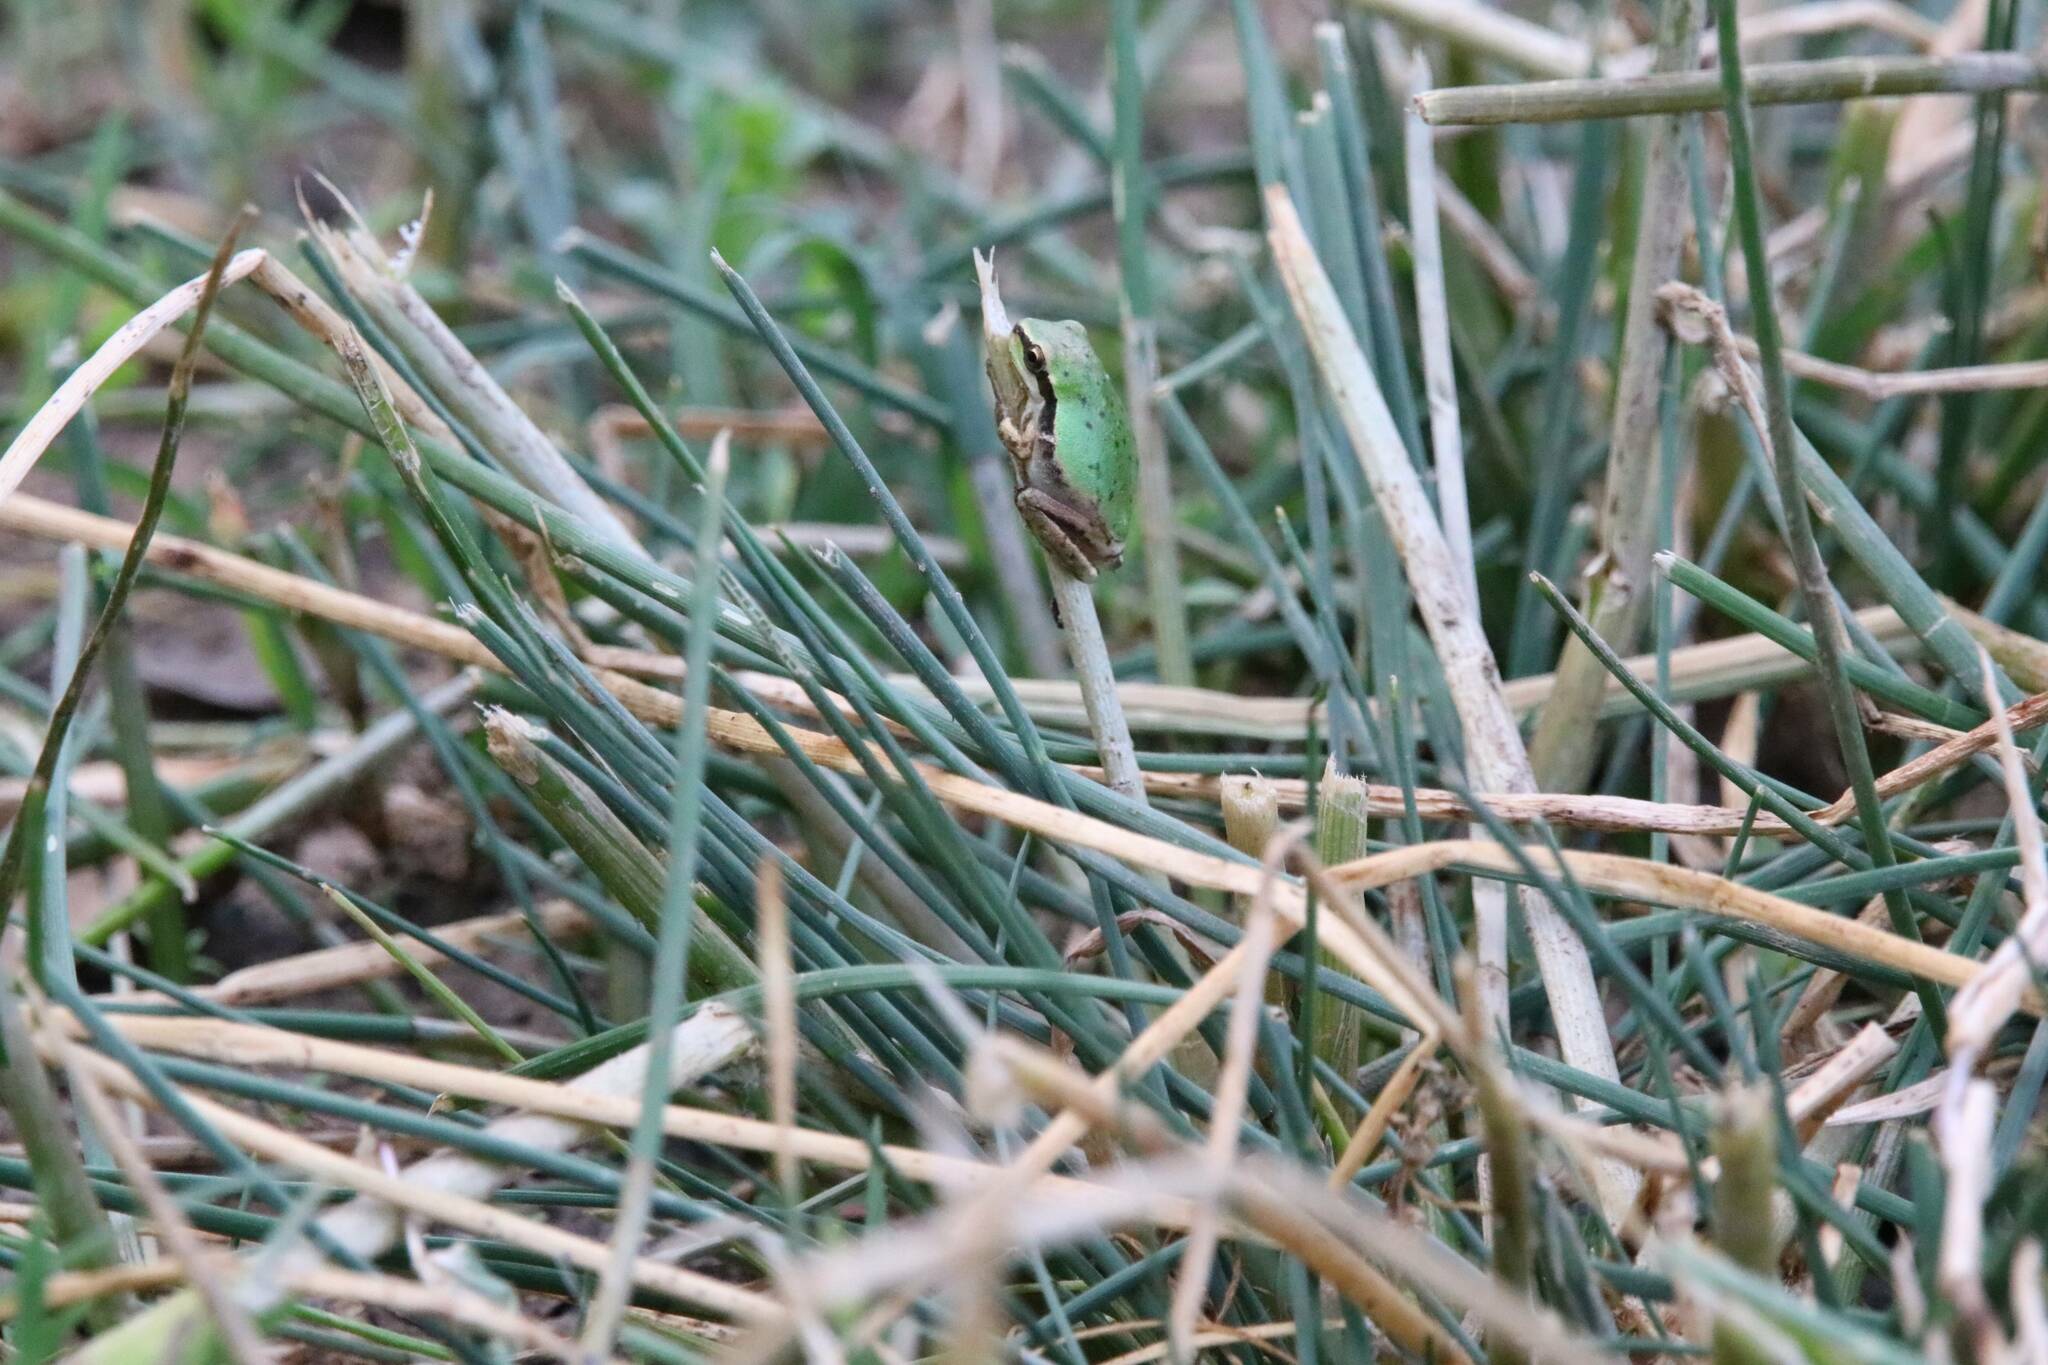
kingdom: Animalia
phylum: Chordata
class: Amphibia
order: Anura
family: Hylidae
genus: Hyla
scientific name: Hyla meridionalis
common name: Stripeless tree frog
